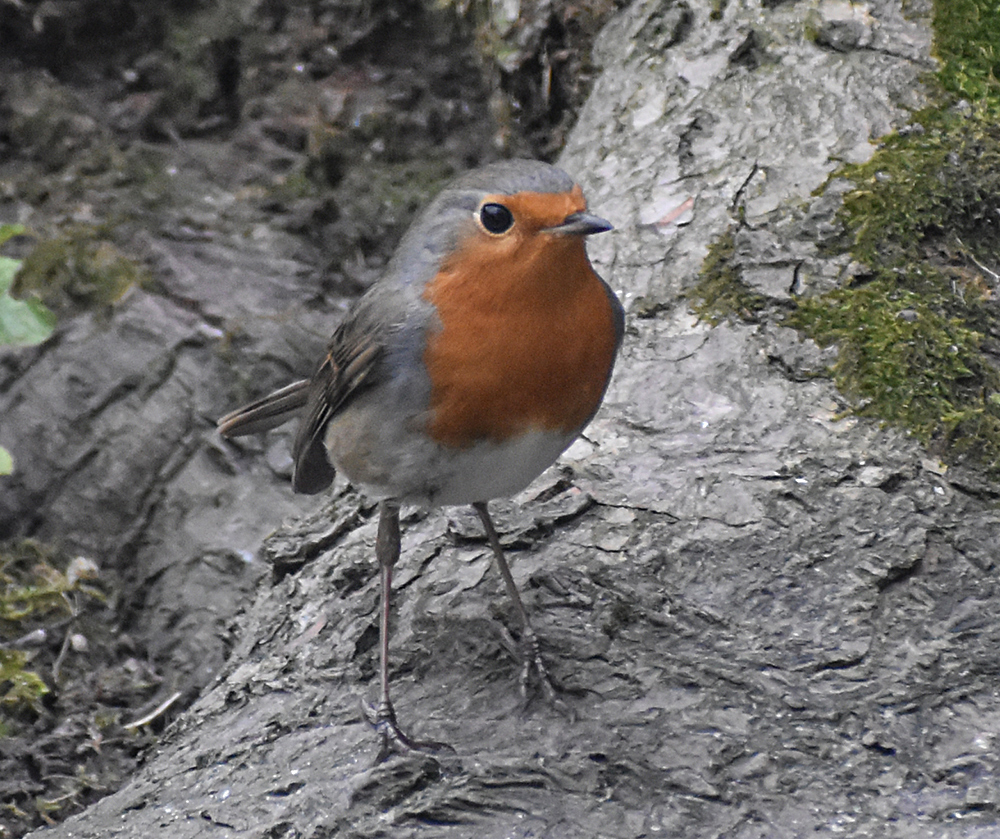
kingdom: Animalia
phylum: Chordata
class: Aves
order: Passeriformes
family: Muscicapidae
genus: Erithacus
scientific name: Erithacus rubecula
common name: European robin
